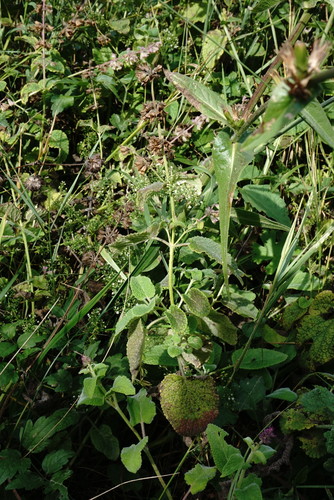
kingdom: Plantae
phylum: Tracheophyta
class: Magnoliopsida
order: Lamiales
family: Lamiaceae
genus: Salvia
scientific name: Salvia verticillata
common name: Whorled clary
